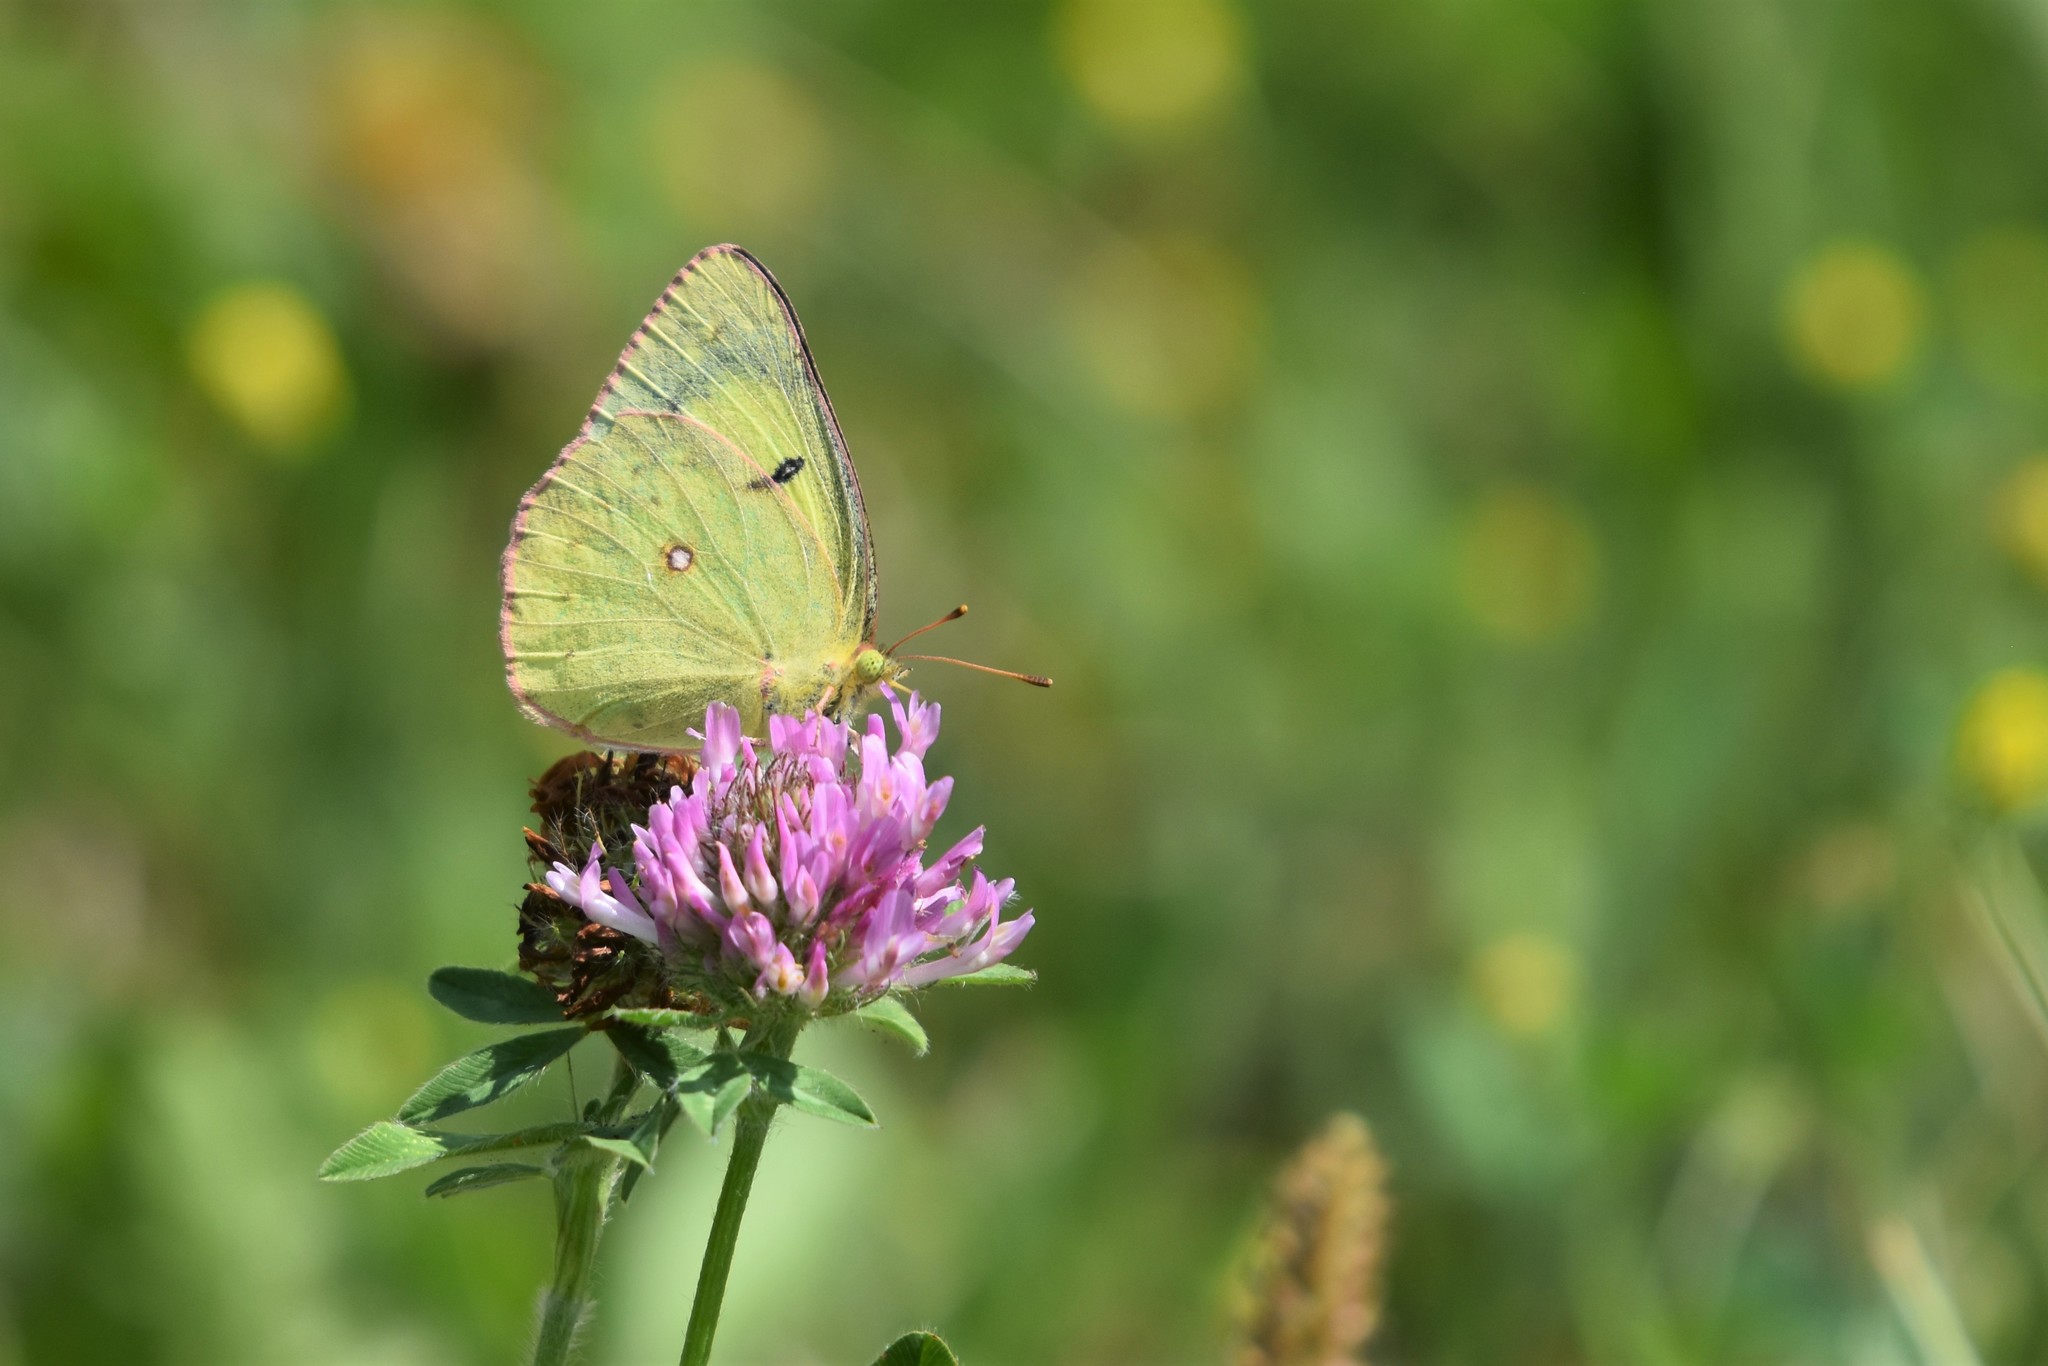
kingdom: Animalia
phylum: Arthropoda
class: Insecta
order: Lepidoptera
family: Pieridae
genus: Colias
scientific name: Colias philodice
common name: Clouded sulphur
